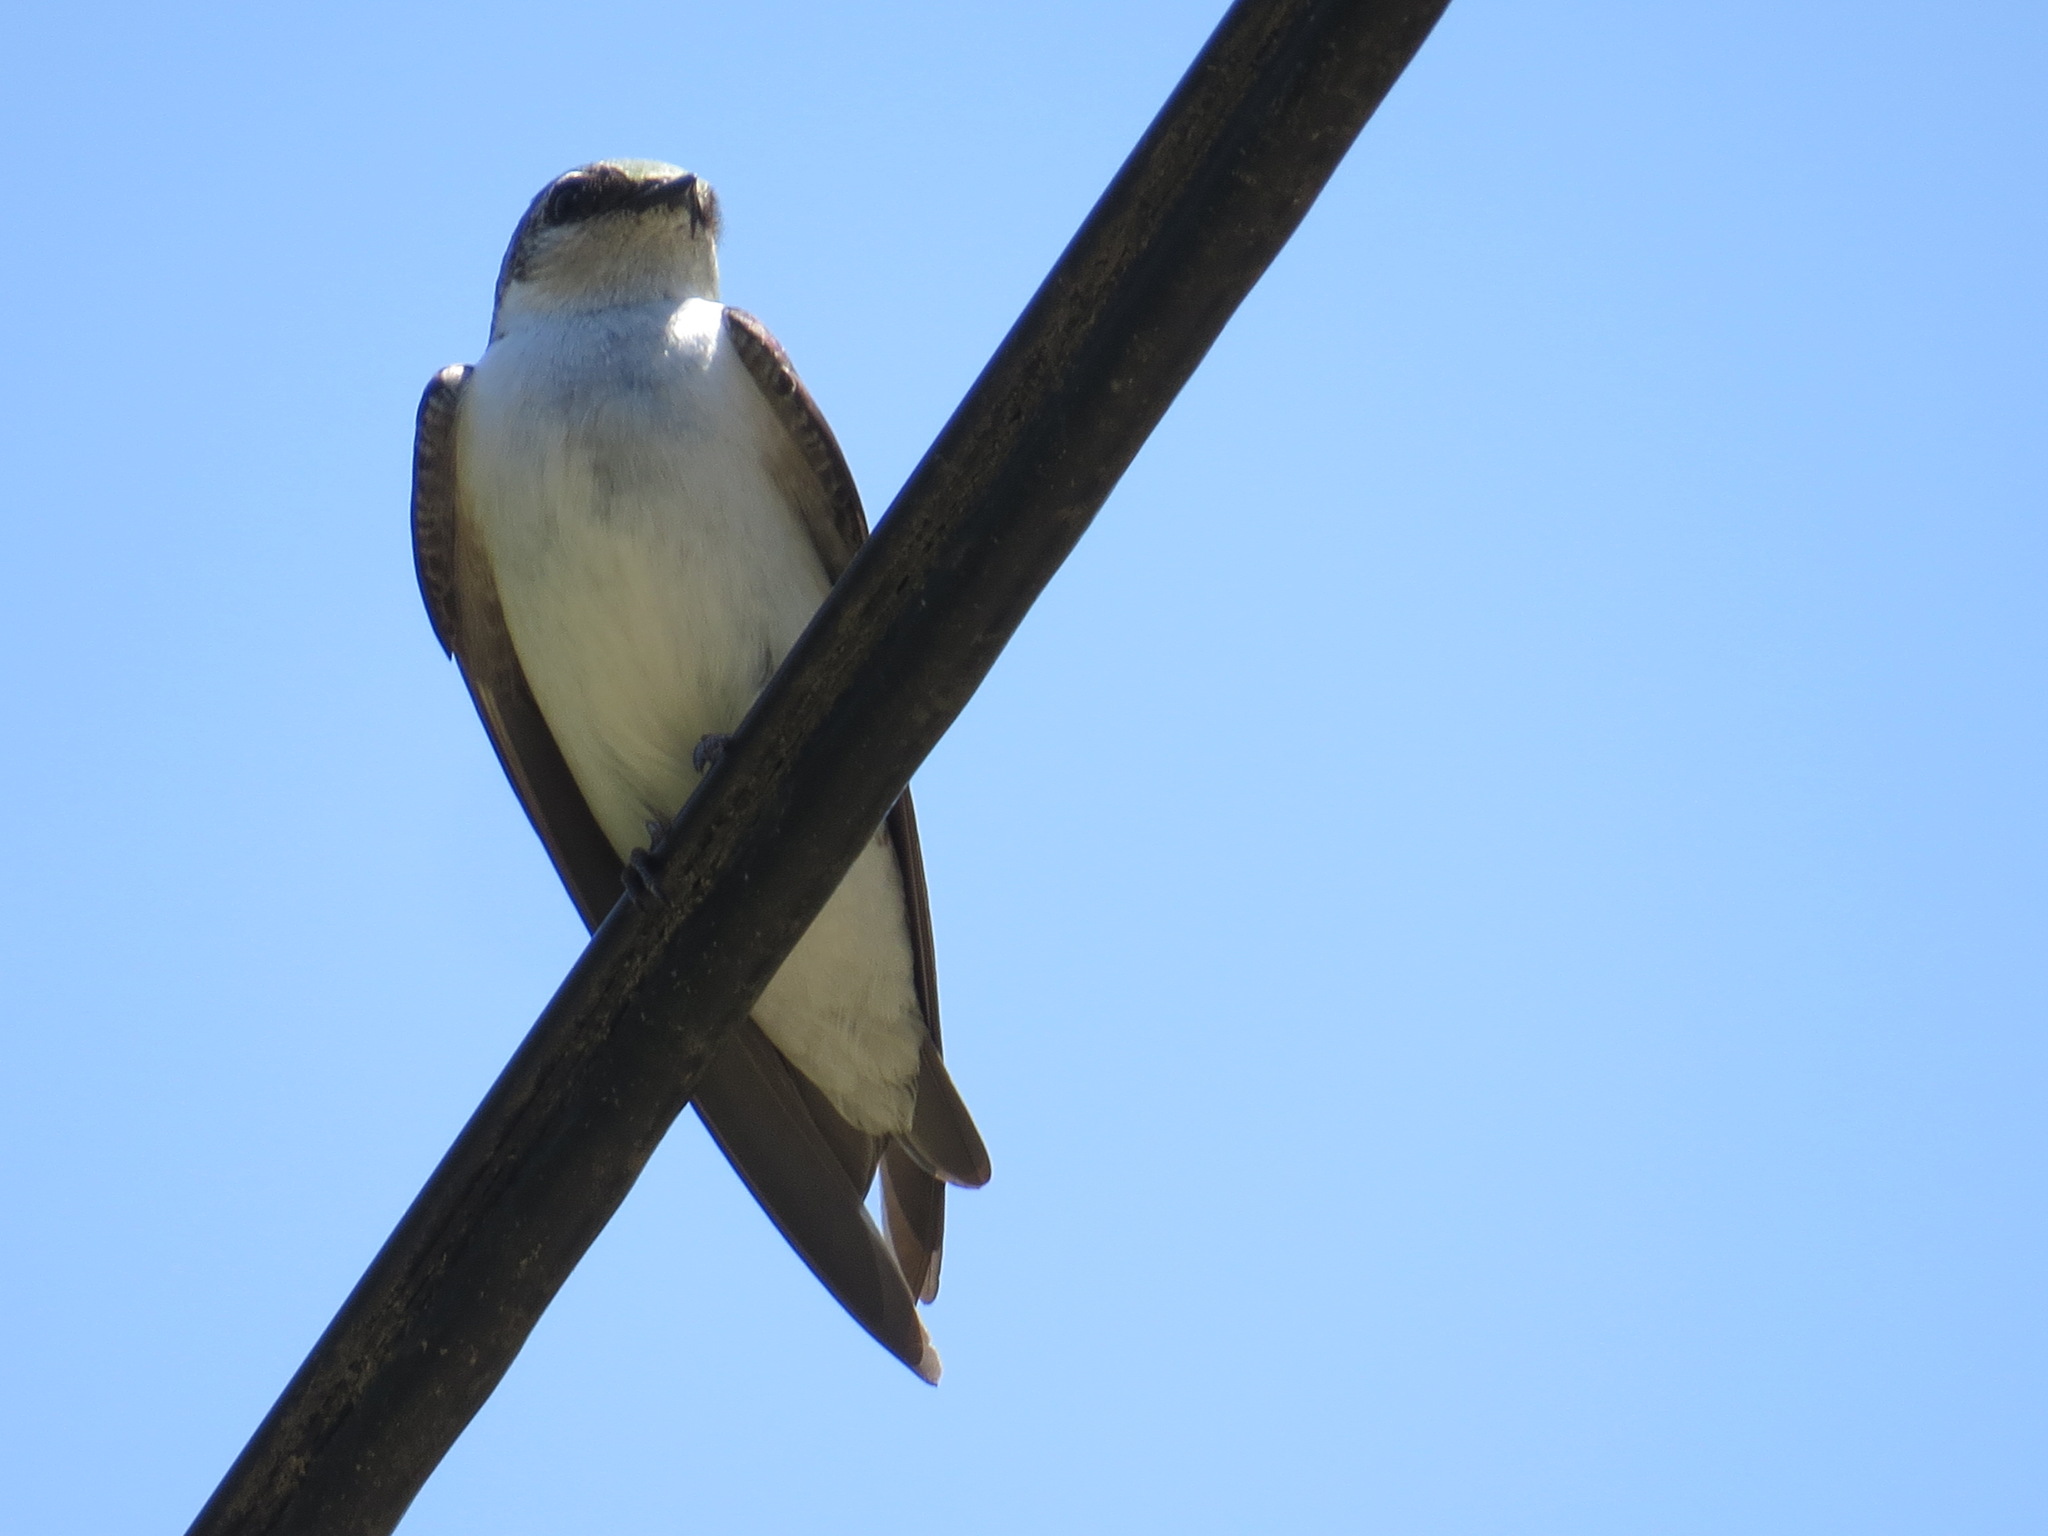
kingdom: Animalia
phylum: Chordata
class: Aves
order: Passeriformes
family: Hirundinidae
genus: Tachycineta
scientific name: Tachycineta thalassina
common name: Violet-green swallow
